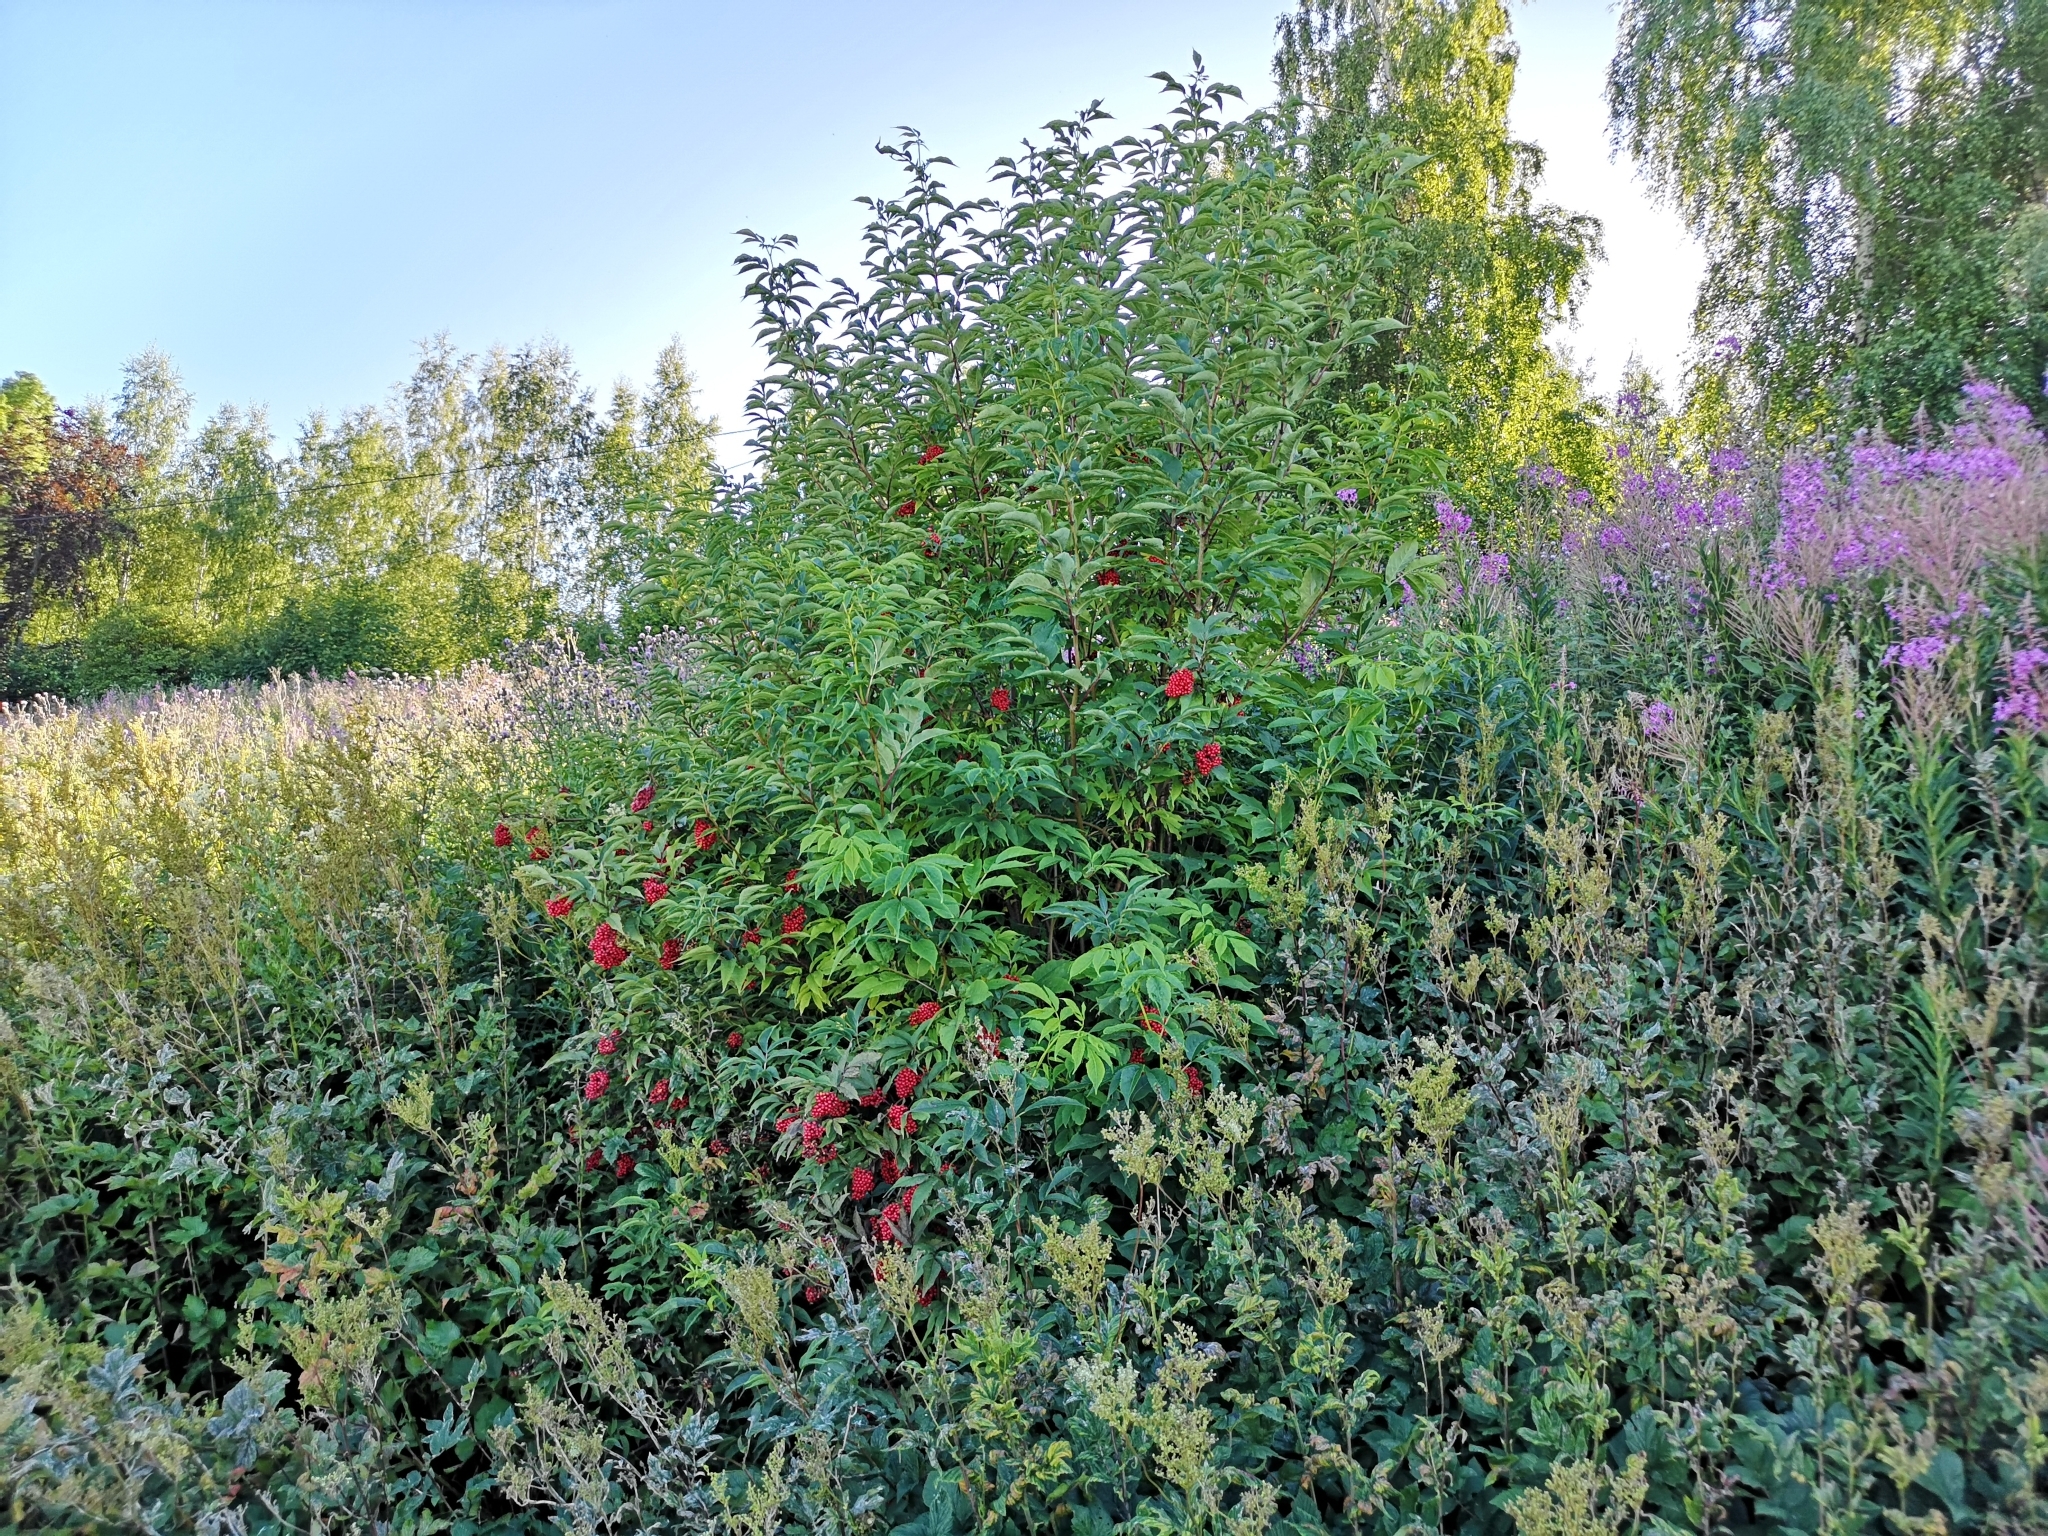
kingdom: Plantae
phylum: Tracheophyta
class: Magnoliopsida
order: Dipsacales
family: Viburnaceae
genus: Sambucus
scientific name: Sambucus racemosa
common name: Red-berried elder
